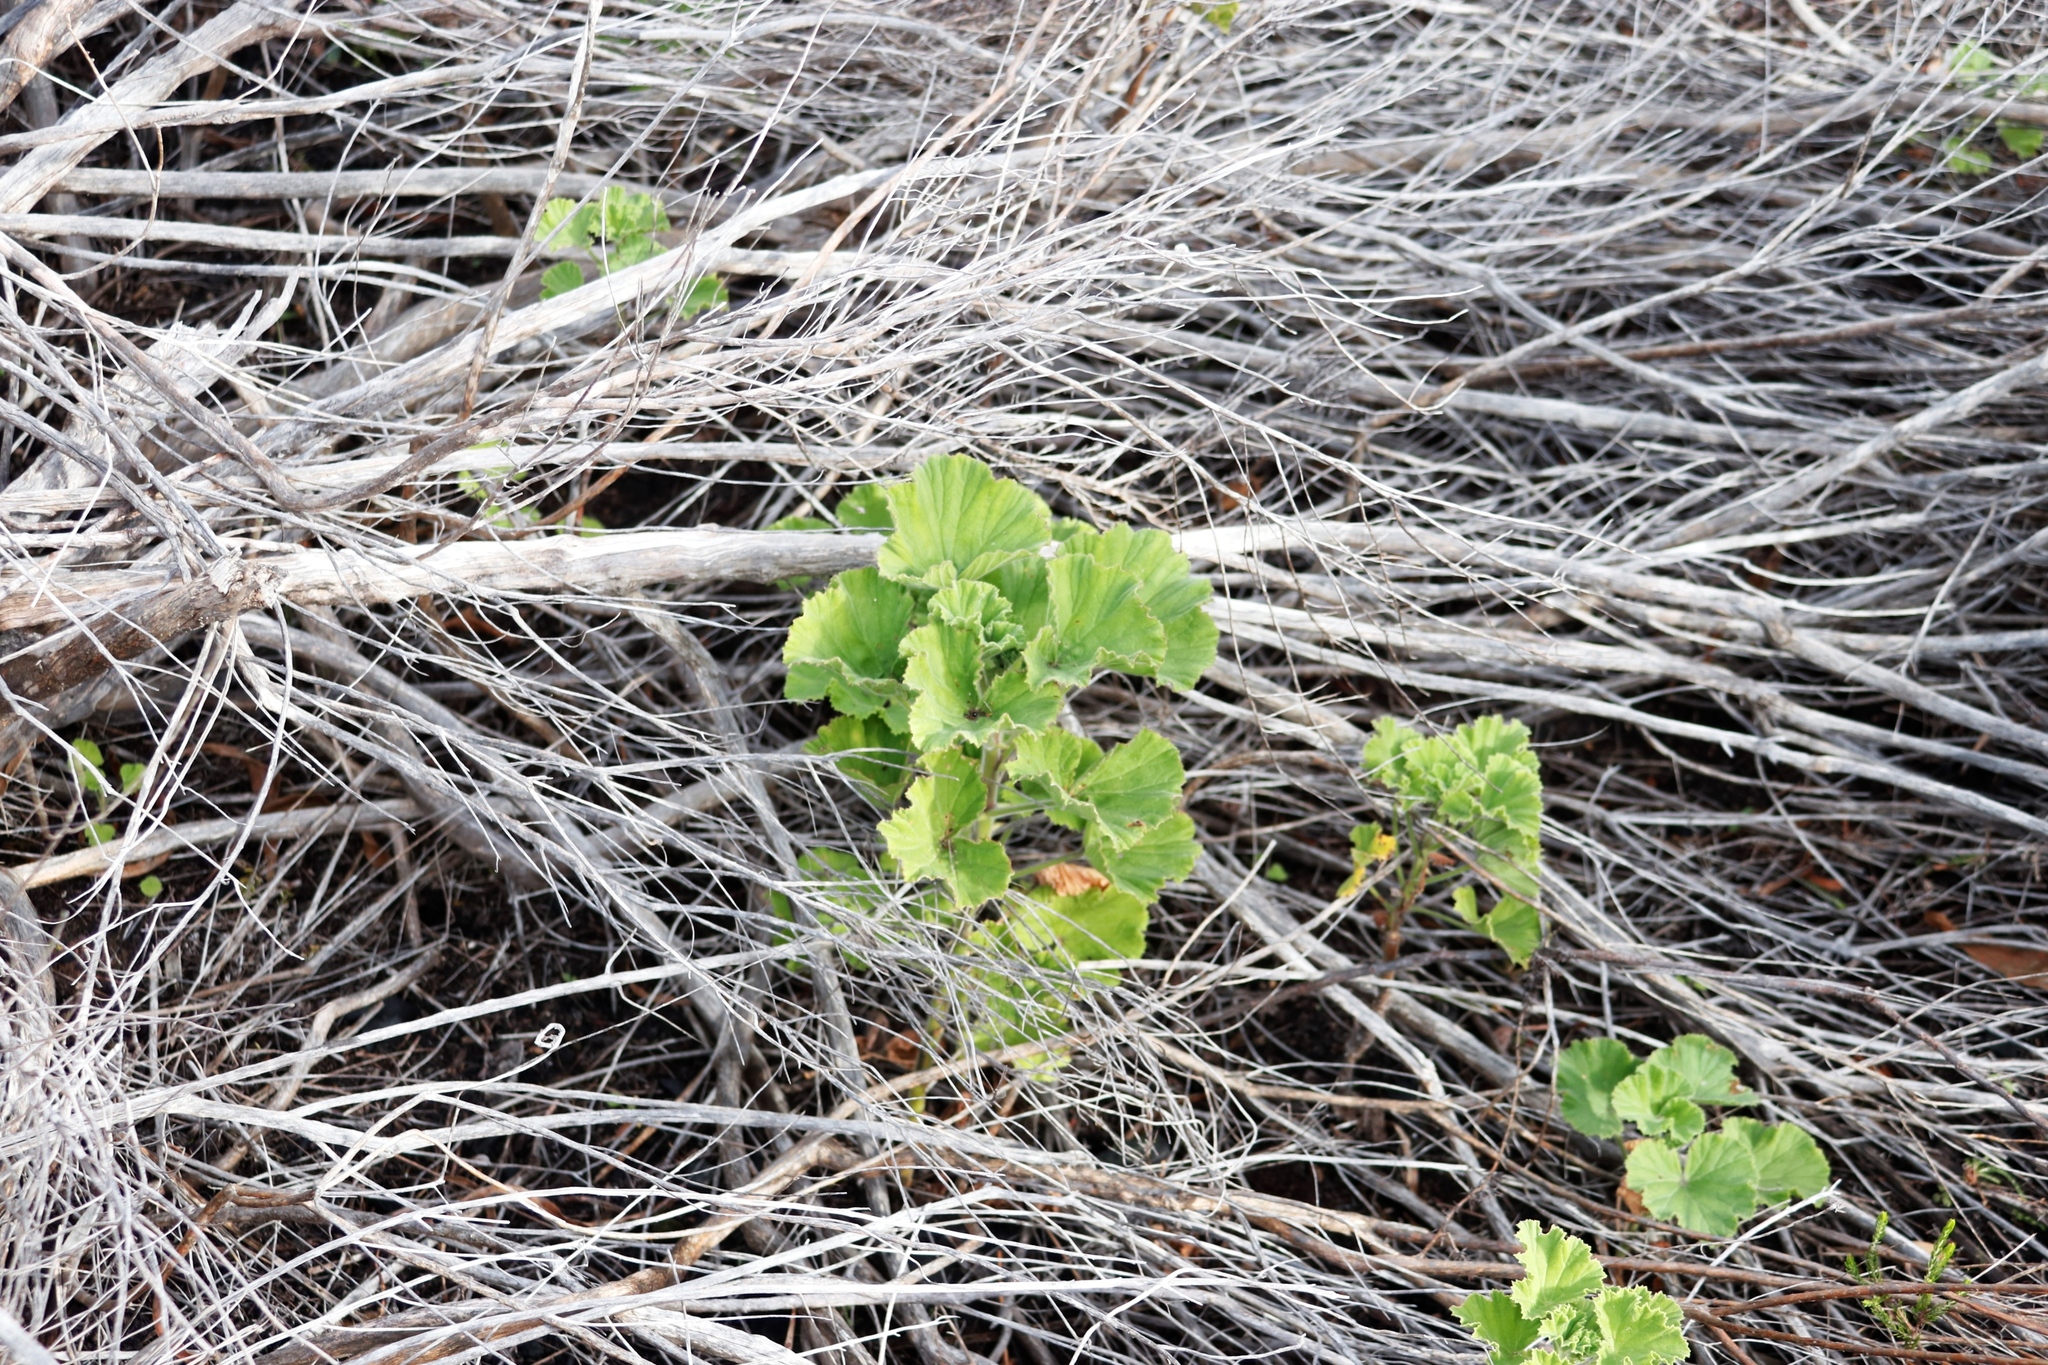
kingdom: Plantae
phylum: Tracheophyta
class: Magnoliopsida
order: Geraniales
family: Geraniaceae
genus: Pelargonium
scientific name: Pelargonium cucullatum
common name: Tree pelargonium
